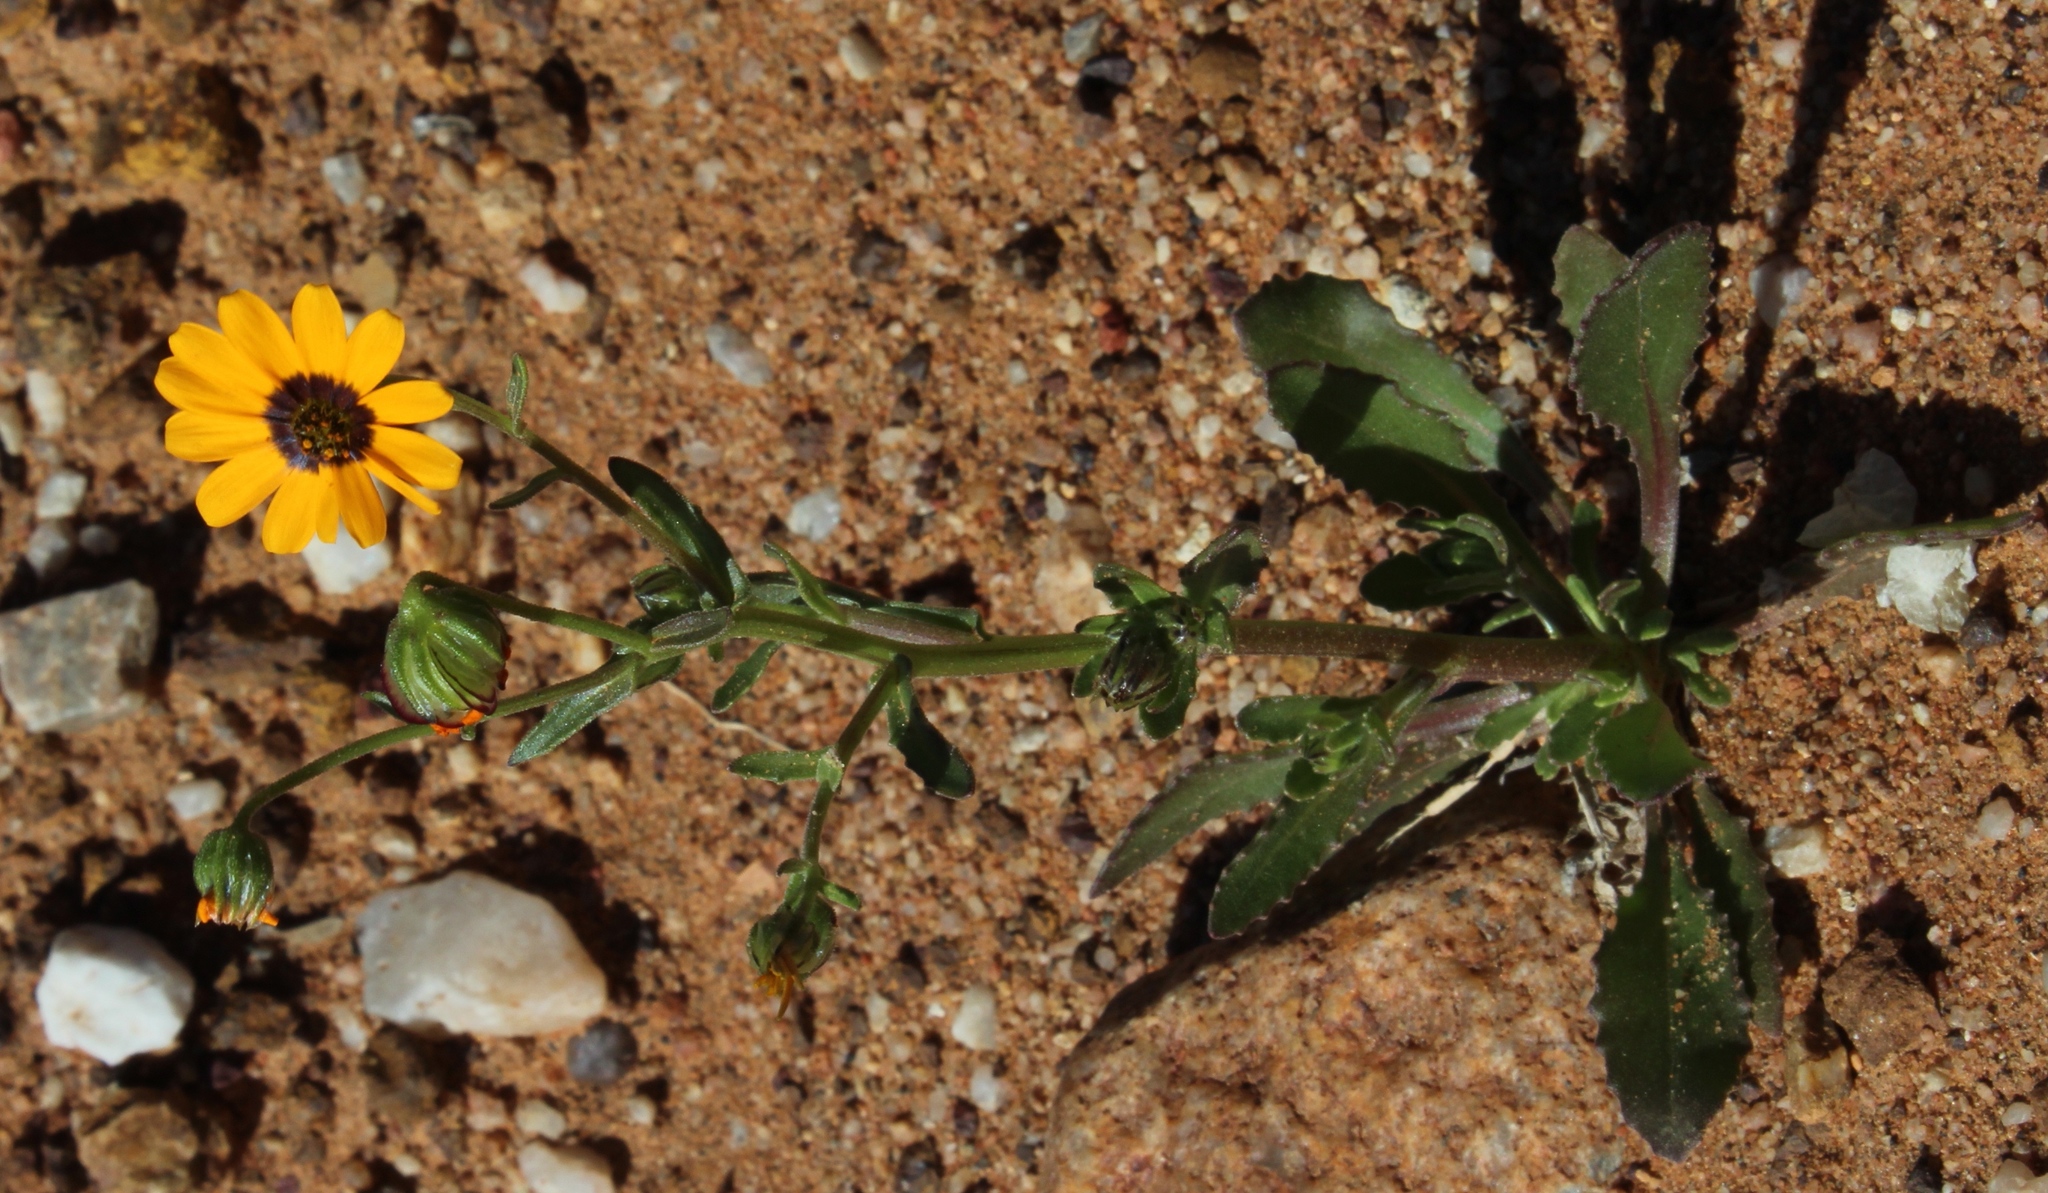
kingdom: Plantae
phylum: Tracheophyta
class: Magnoliopsida
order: Asterales
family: Asteraceae
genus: Osteospermum
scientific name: Osteospermum monstrosum
